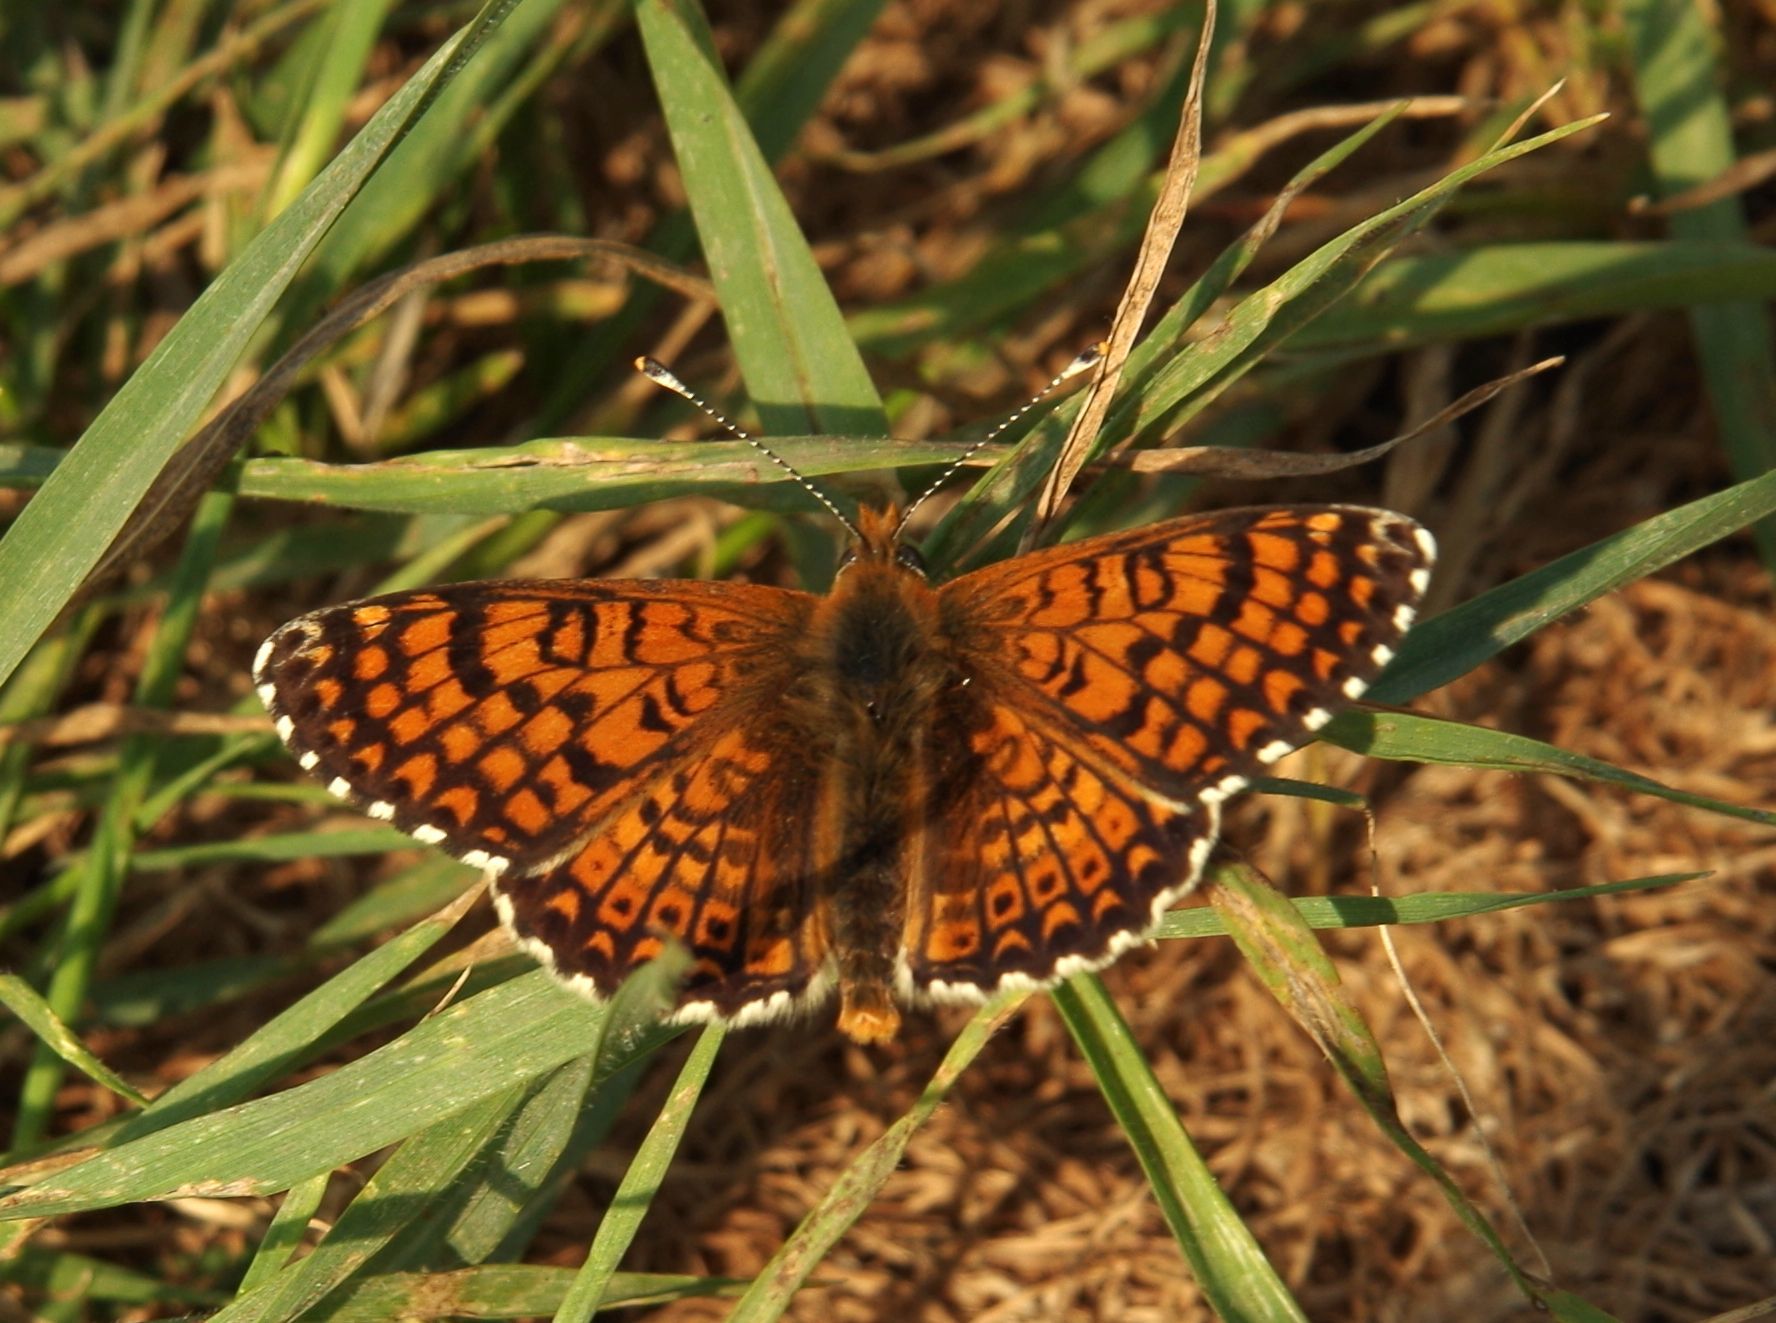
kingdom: Animalia
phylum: Arthropoda
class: Insecta
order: Lepidoptera
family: Nymphalidae
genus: Melitaea
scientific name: Melitaea cinxia
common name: Glanville fritillary
